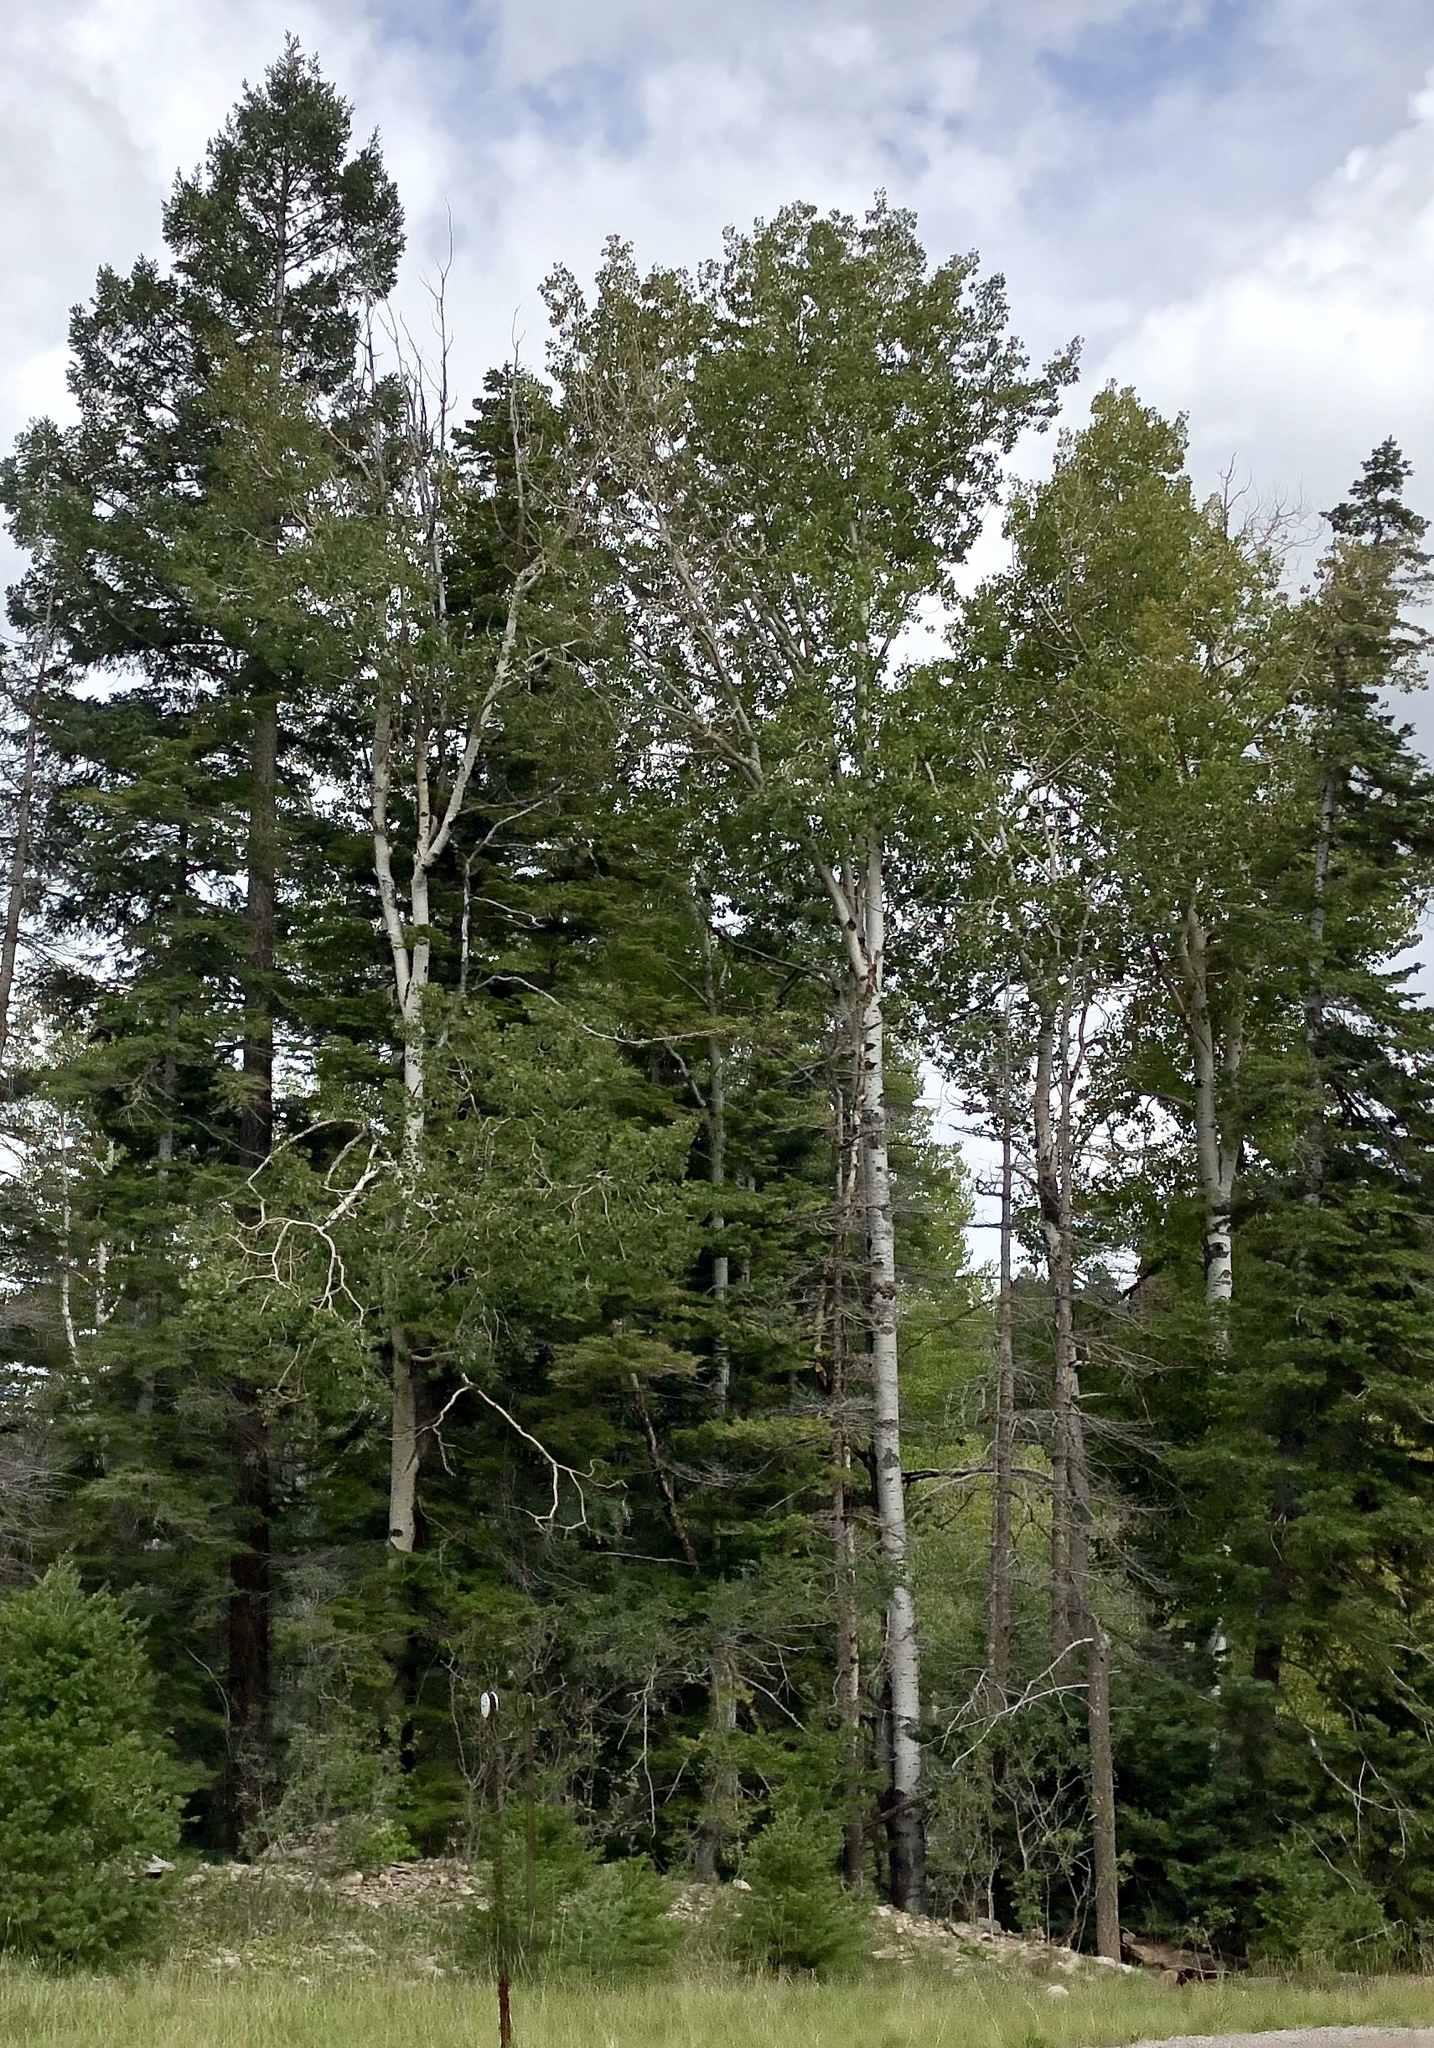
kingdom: Plantae
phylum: Tracheophyta
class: Magnoliopsida
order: Malpighiales
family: Salicaceae
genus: Populus
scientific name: Populus tremuloides
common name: Quaking aspen
